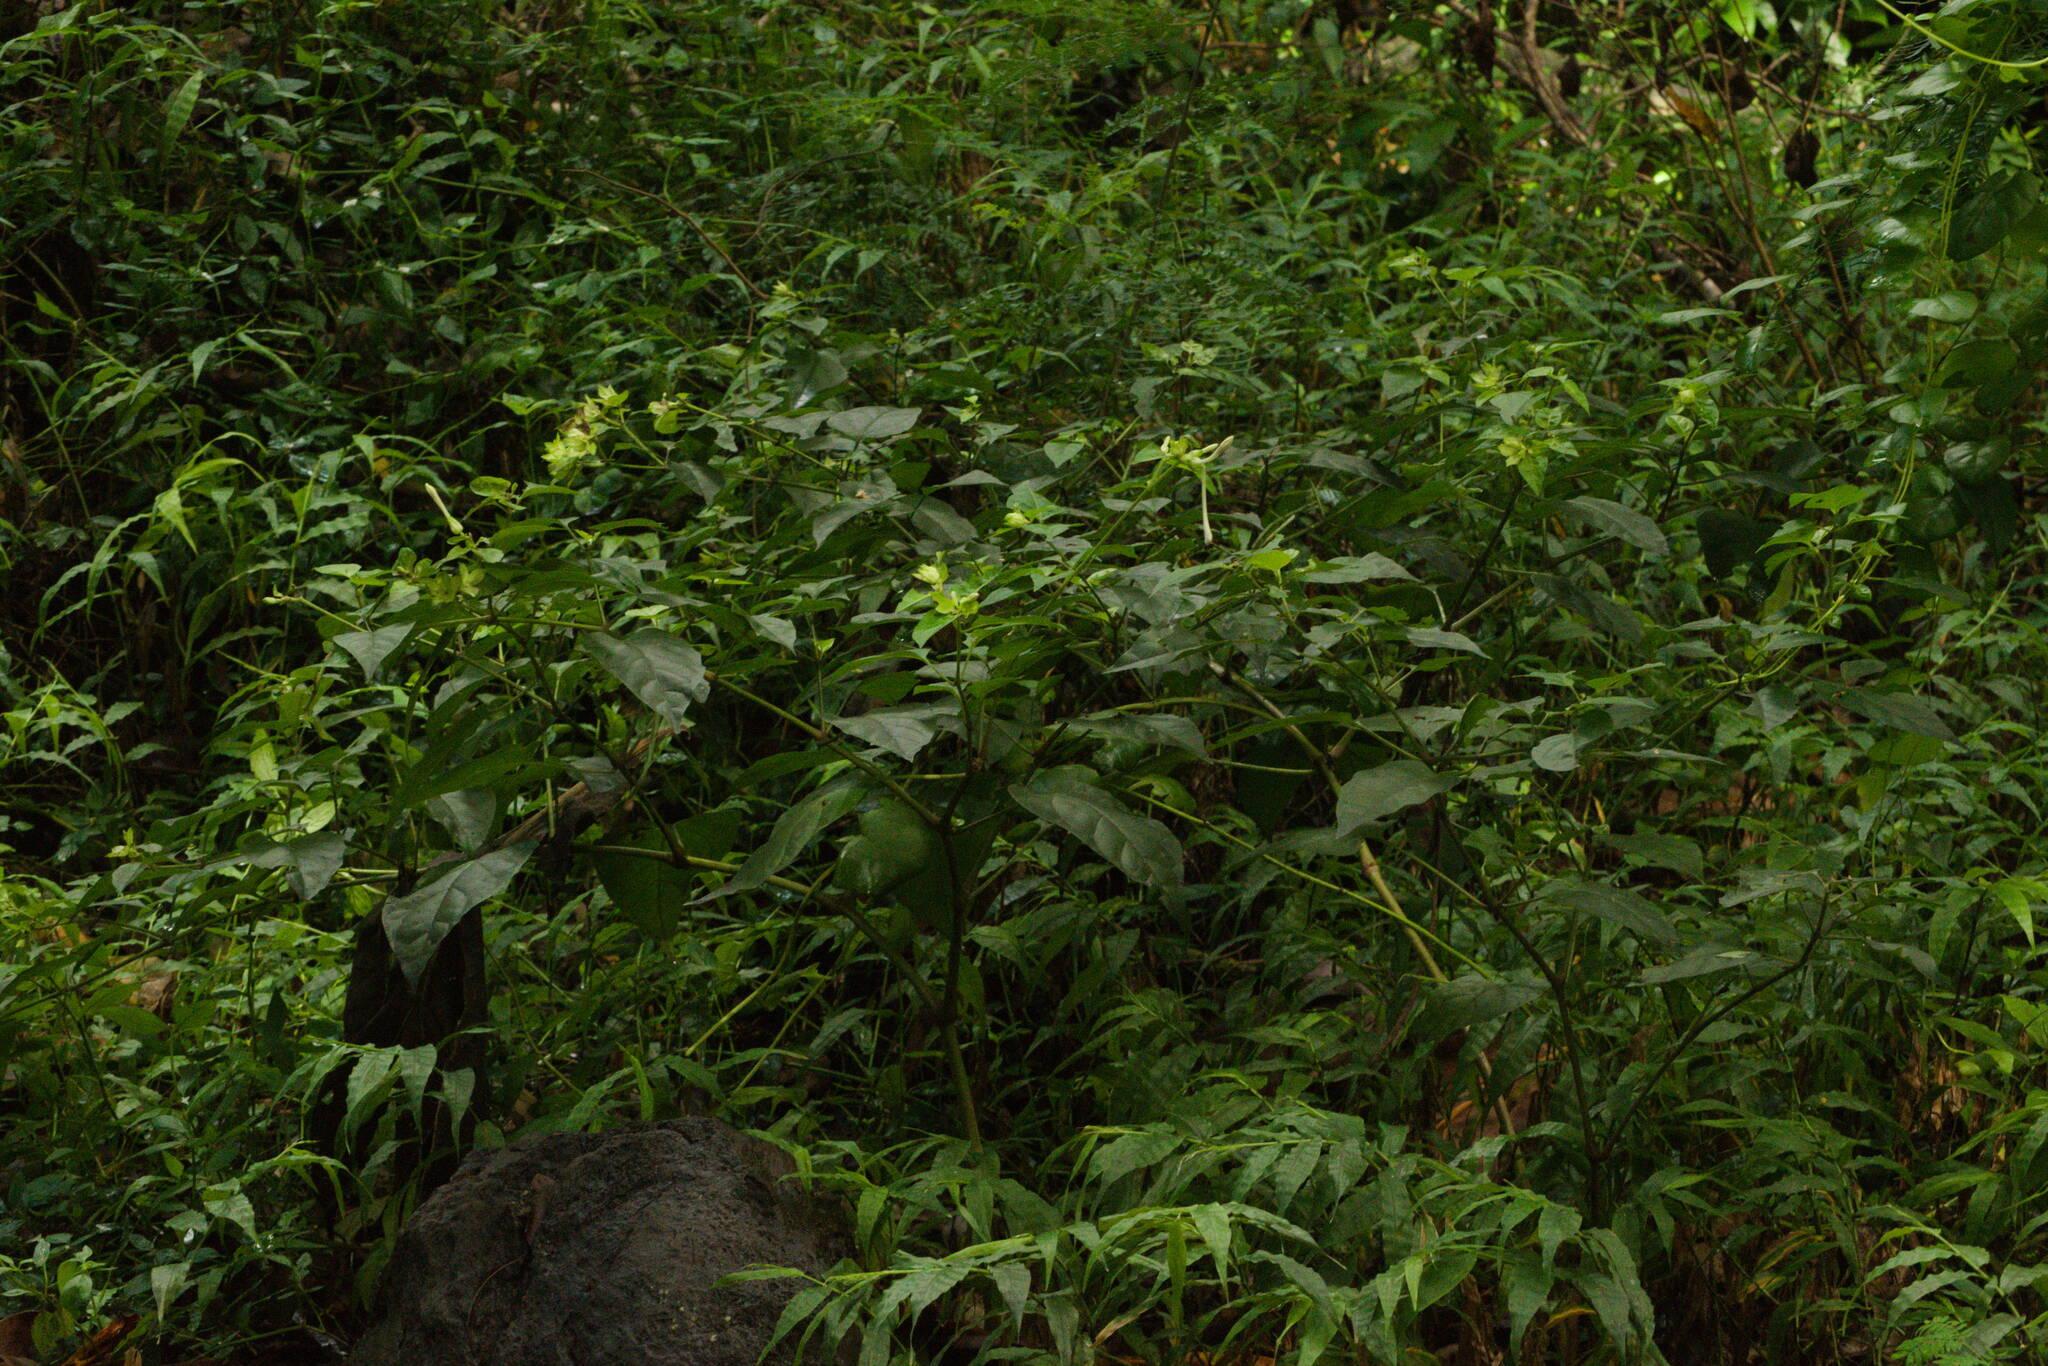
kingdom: Plantae
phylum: Tracheophyta
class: Magnoliopsida
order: Caryophyllales
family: Nyctaginaceae
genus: Mirabilis
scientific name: Mirabilis jalapa
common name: Marvel-of-peru
